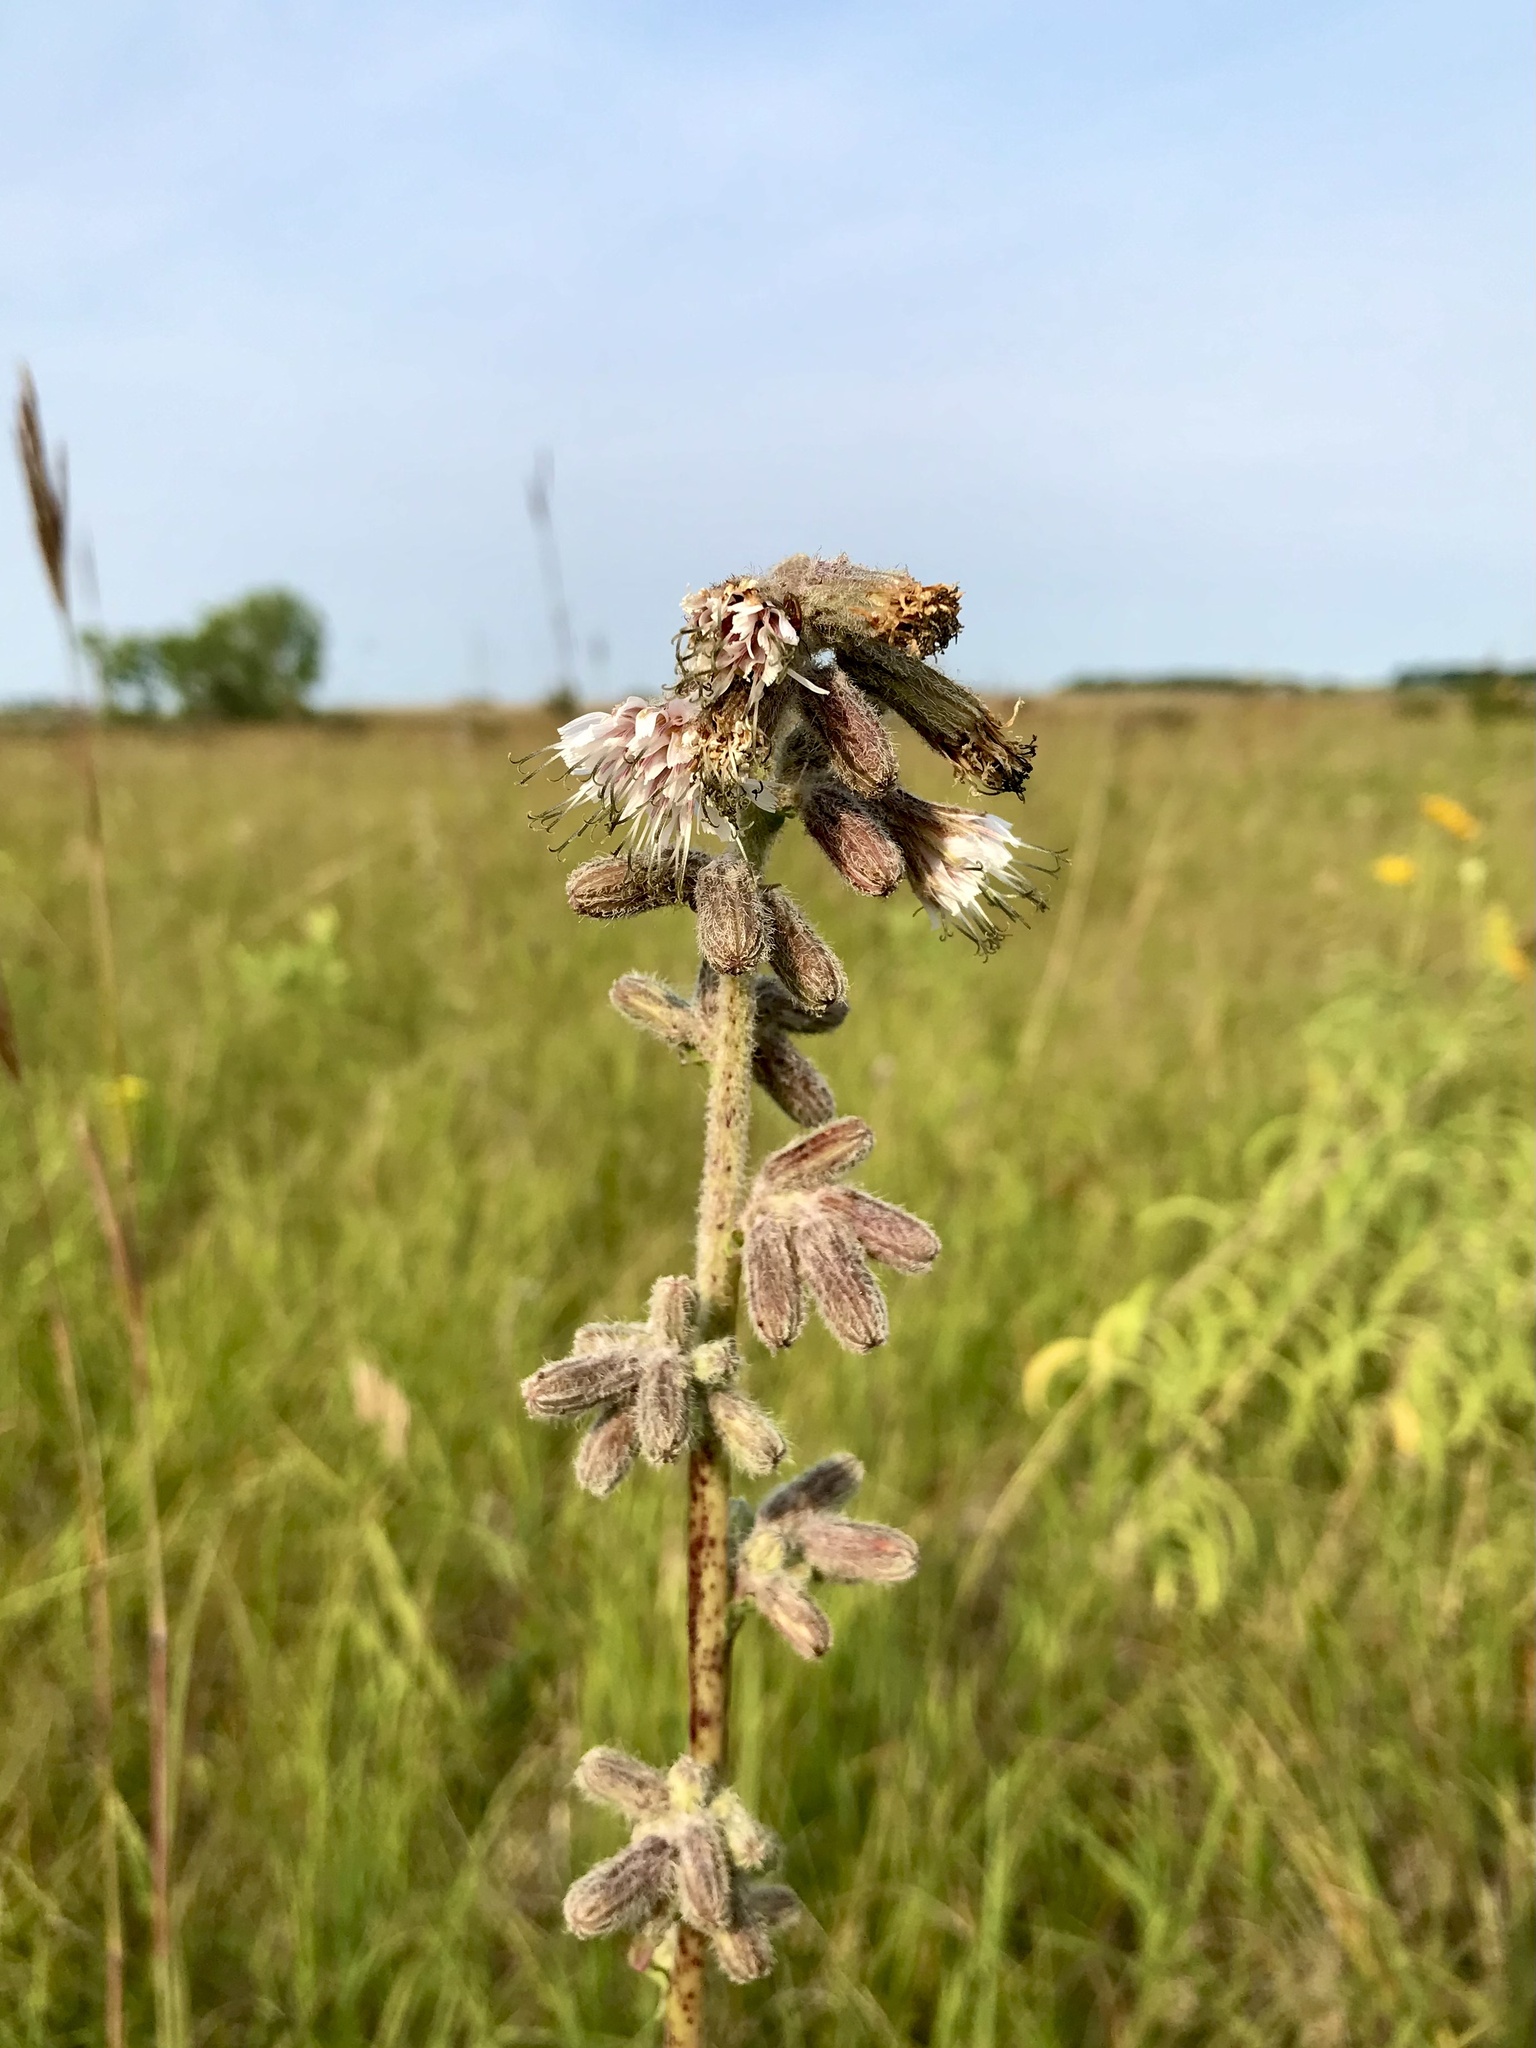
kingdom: Plantae
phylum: Tracheophyta
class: Magnoliopsida
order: Asterales
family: Asteraceae
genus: Nabalus
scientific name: Nabalus racemosus
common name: Glaucous white lettuce
